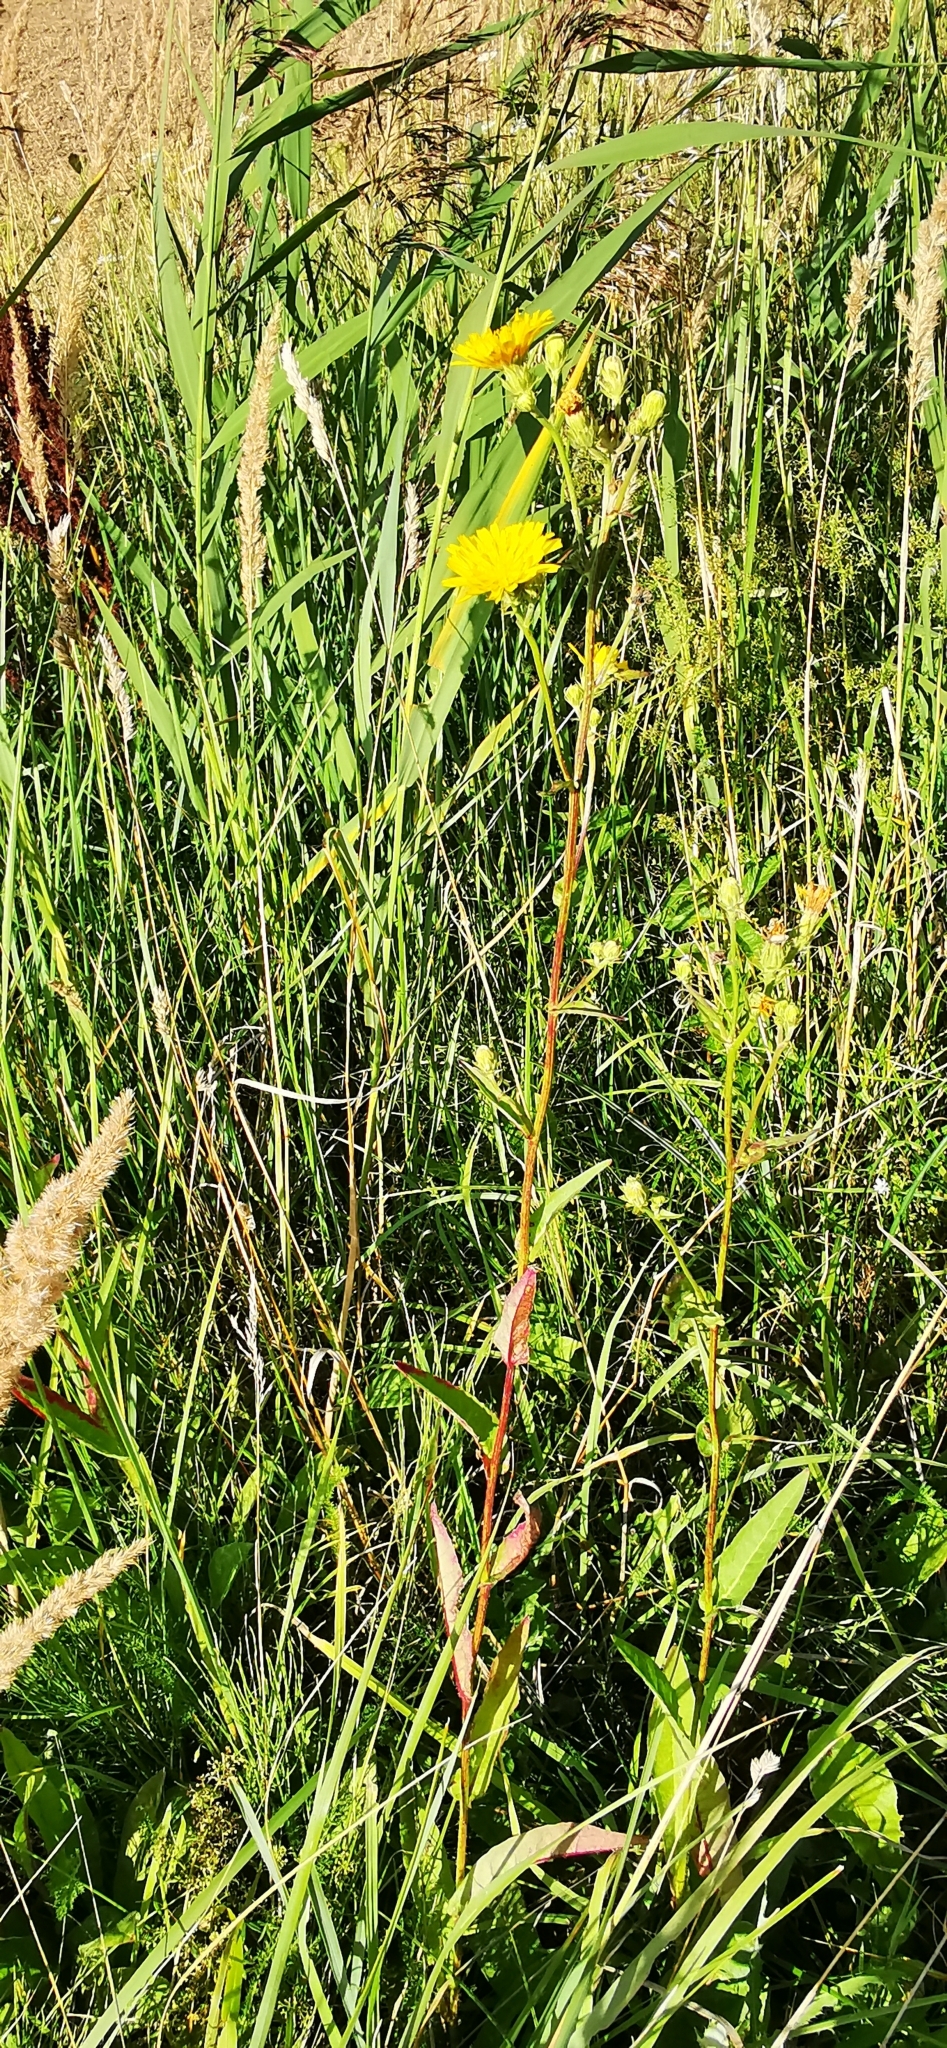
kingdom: Plantae
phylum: Tracheophyta
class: Magnoliopsida
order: Asterales
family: Asteraceae
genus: Picris
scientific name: Picris hieracioides
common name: Hawkweed oxtongue
